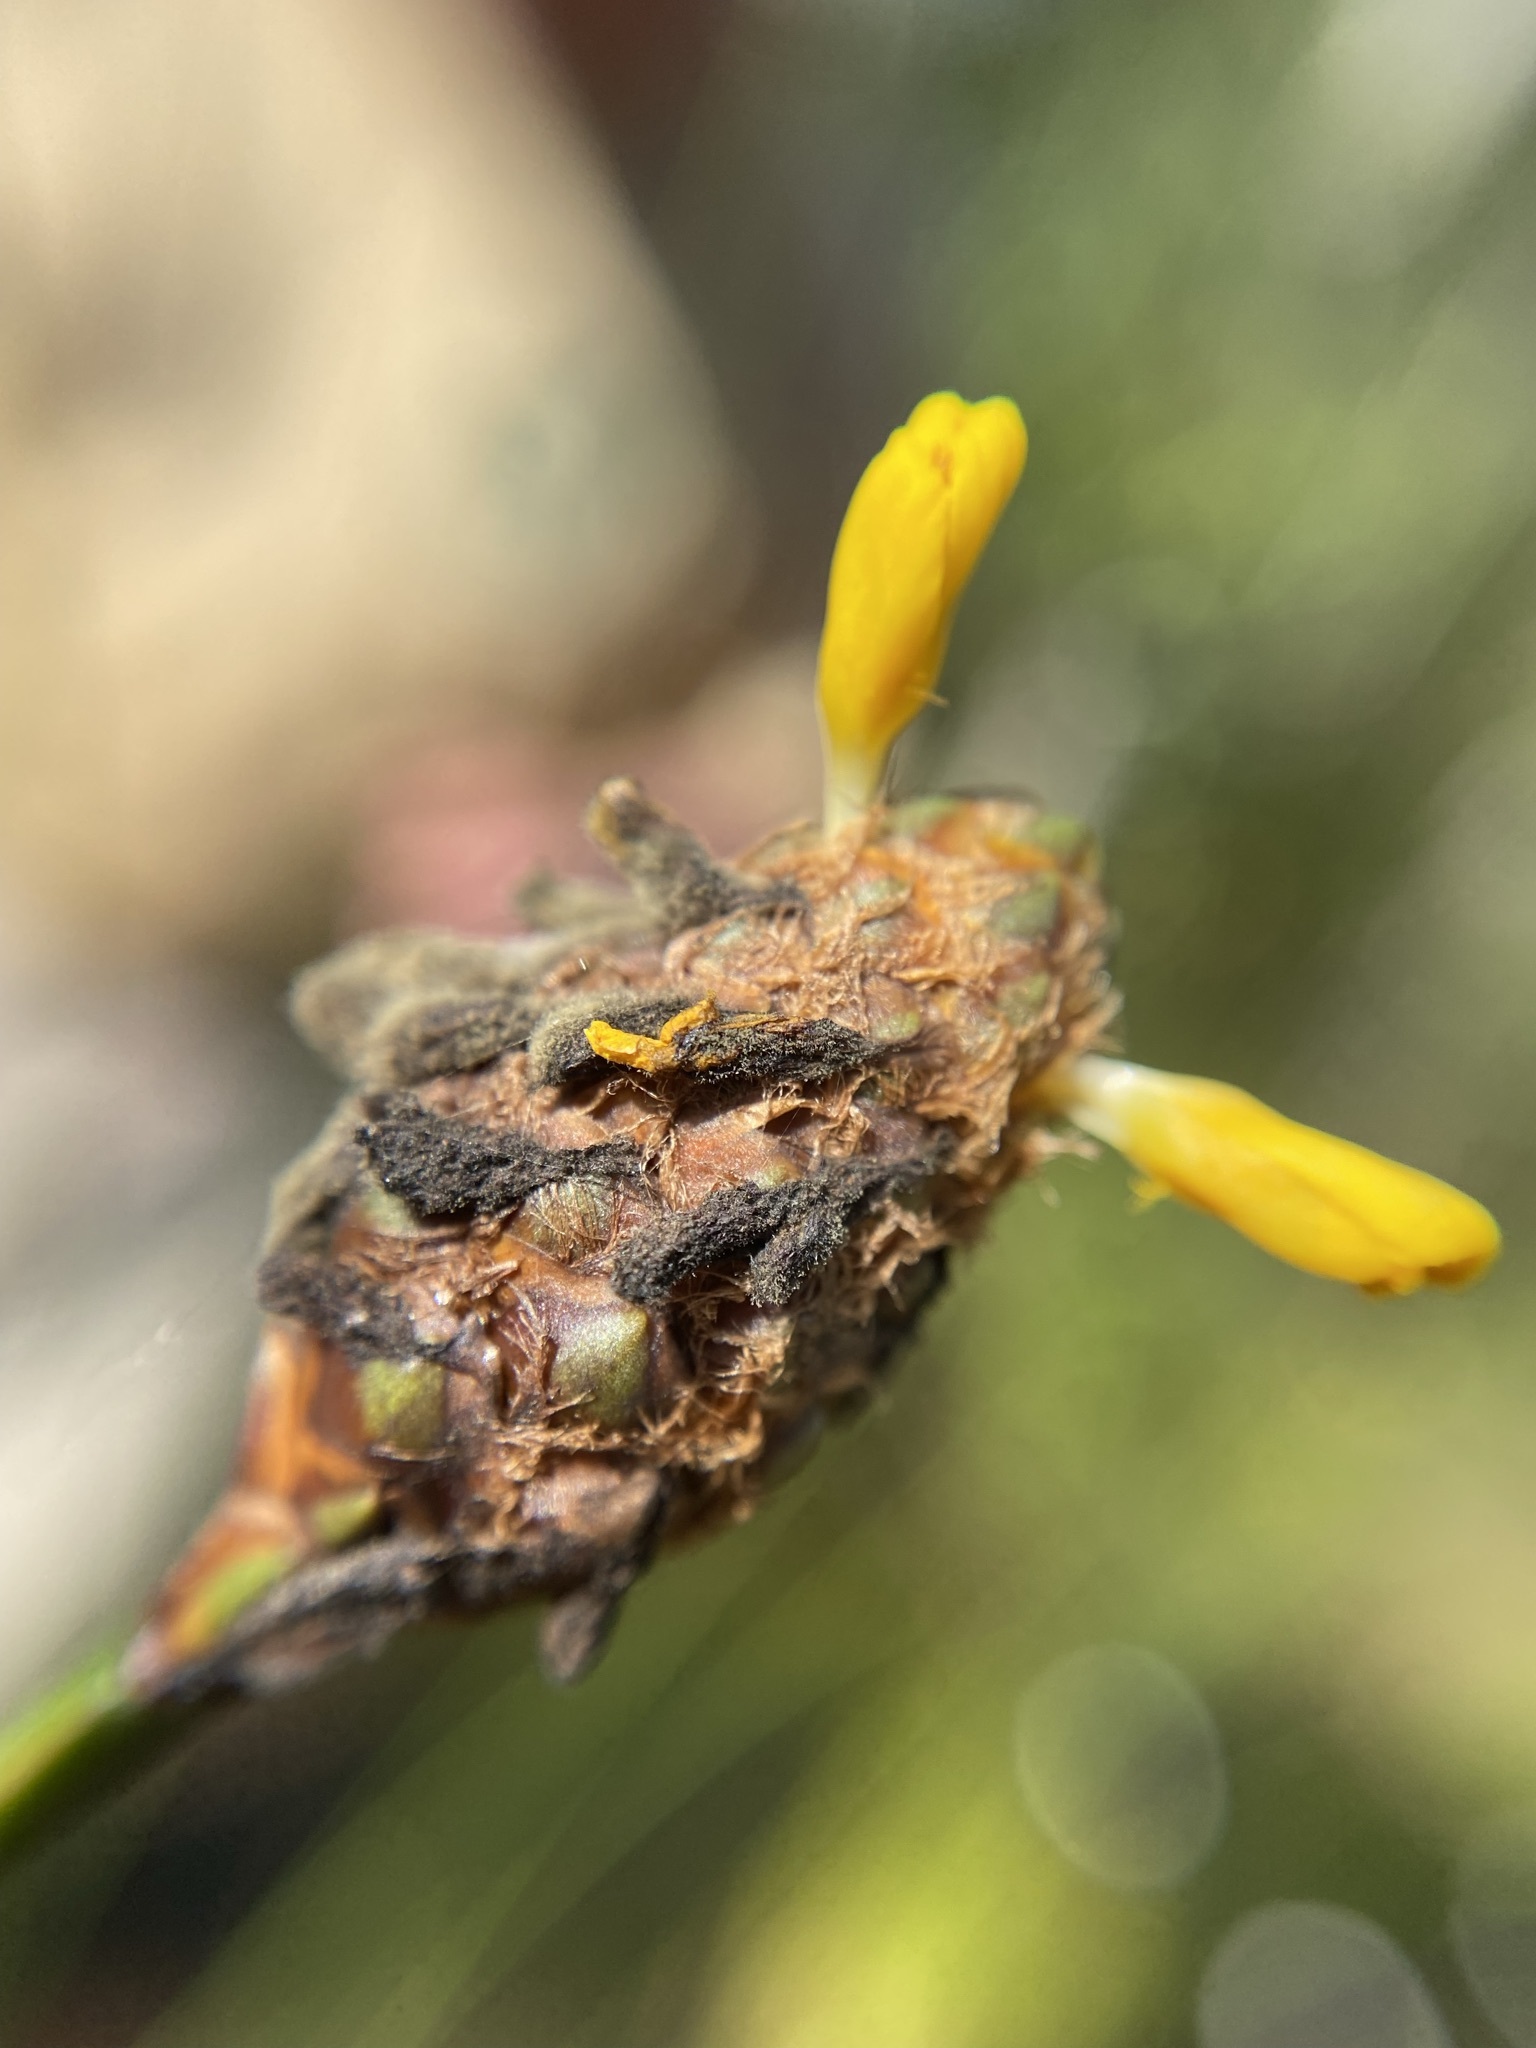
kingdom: Plantae
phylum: Tracheophyta
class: Liliopsida
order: Poales
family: Xyridaceae
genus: Xyris
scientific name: Xyris fimbriata
